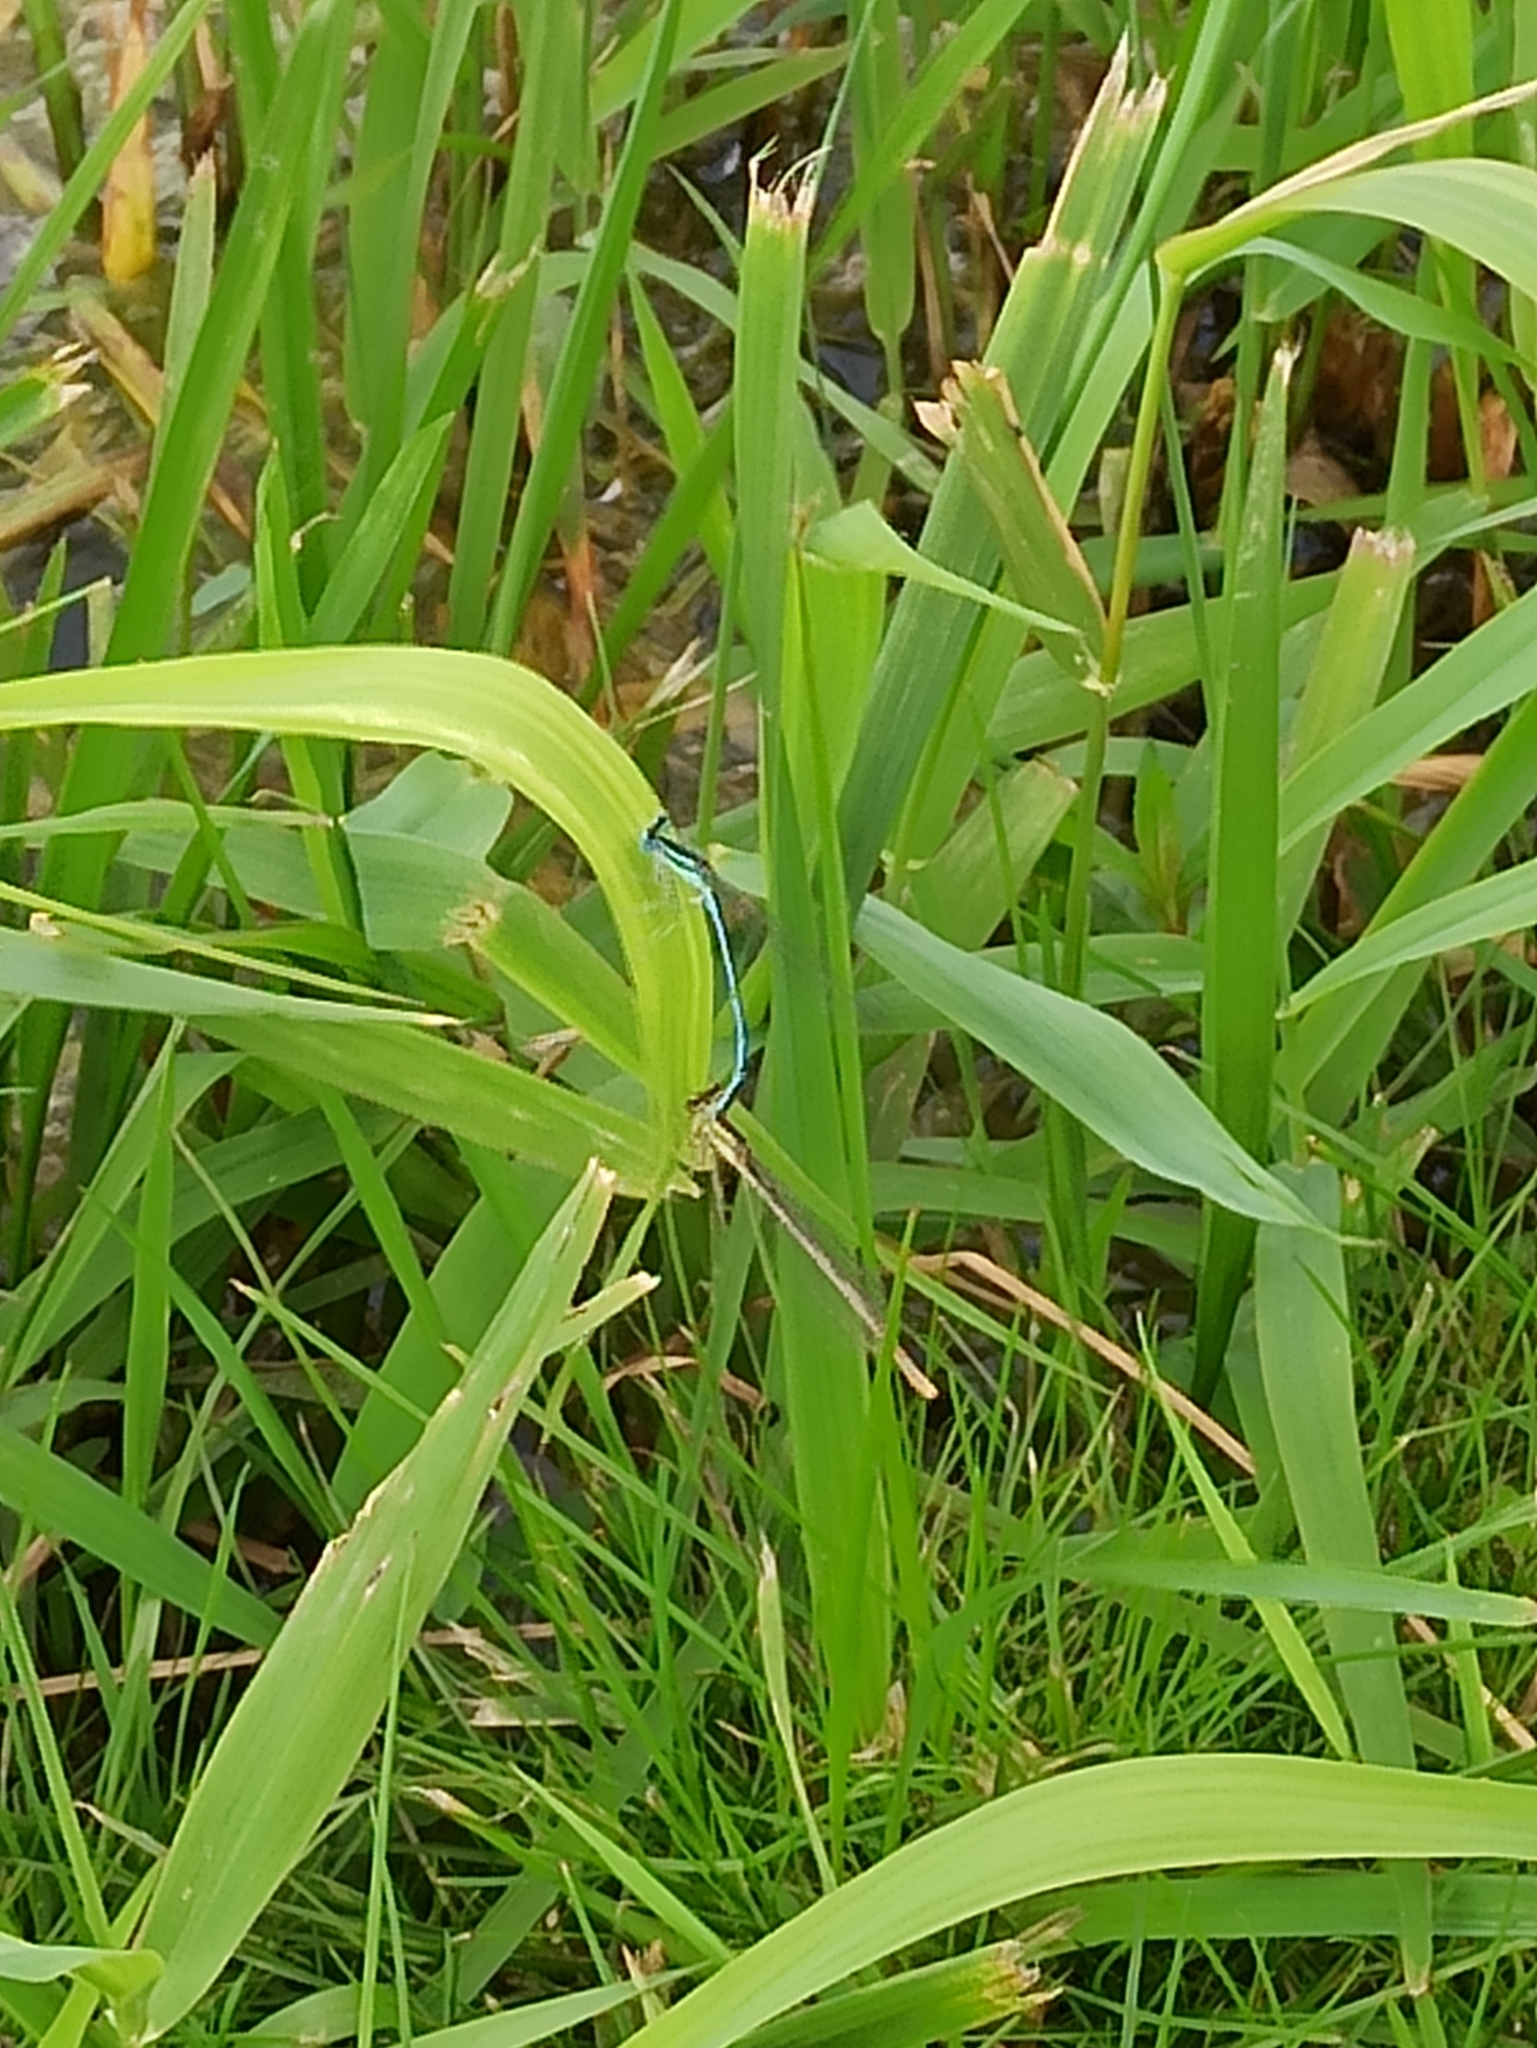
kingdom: Animalia
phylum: Arthropoda
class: Insecta
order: Odonata
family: Platycnemididae
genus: Platycnemis
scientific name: Platycnemis pennipes
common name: White-legged damselfly
